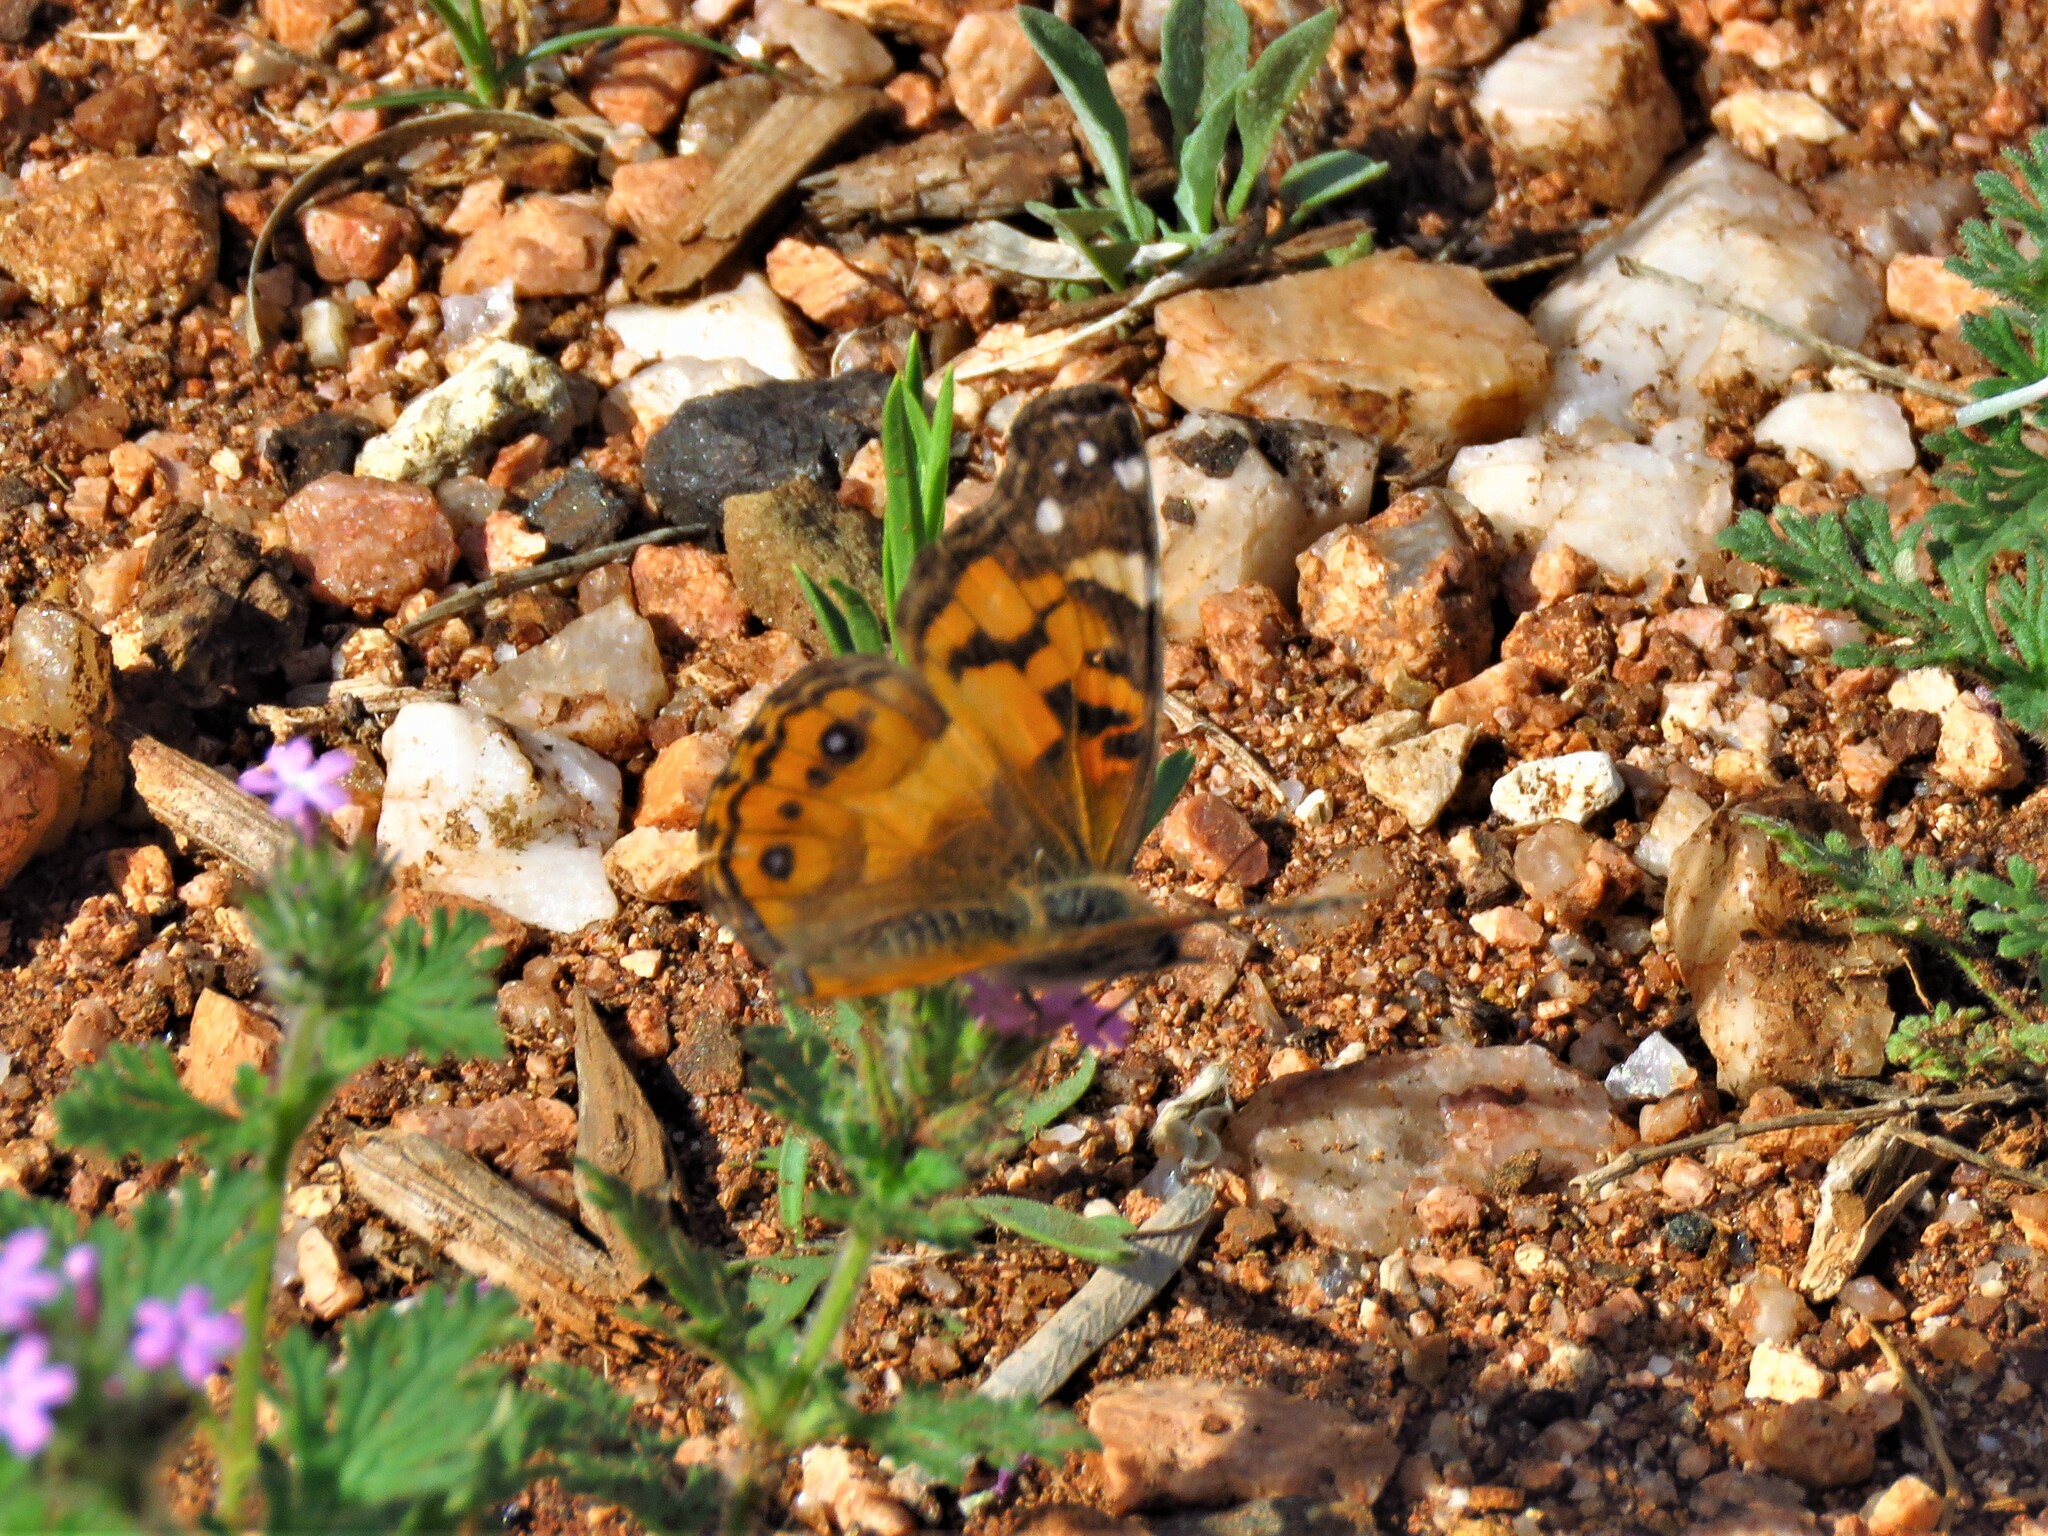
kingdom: Animalia
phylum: Arthropoda
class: Insecta
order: Lepidoptera
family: Nymphalidae
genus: Vanessa
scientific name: Vanessa virginiensis
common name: American lady
